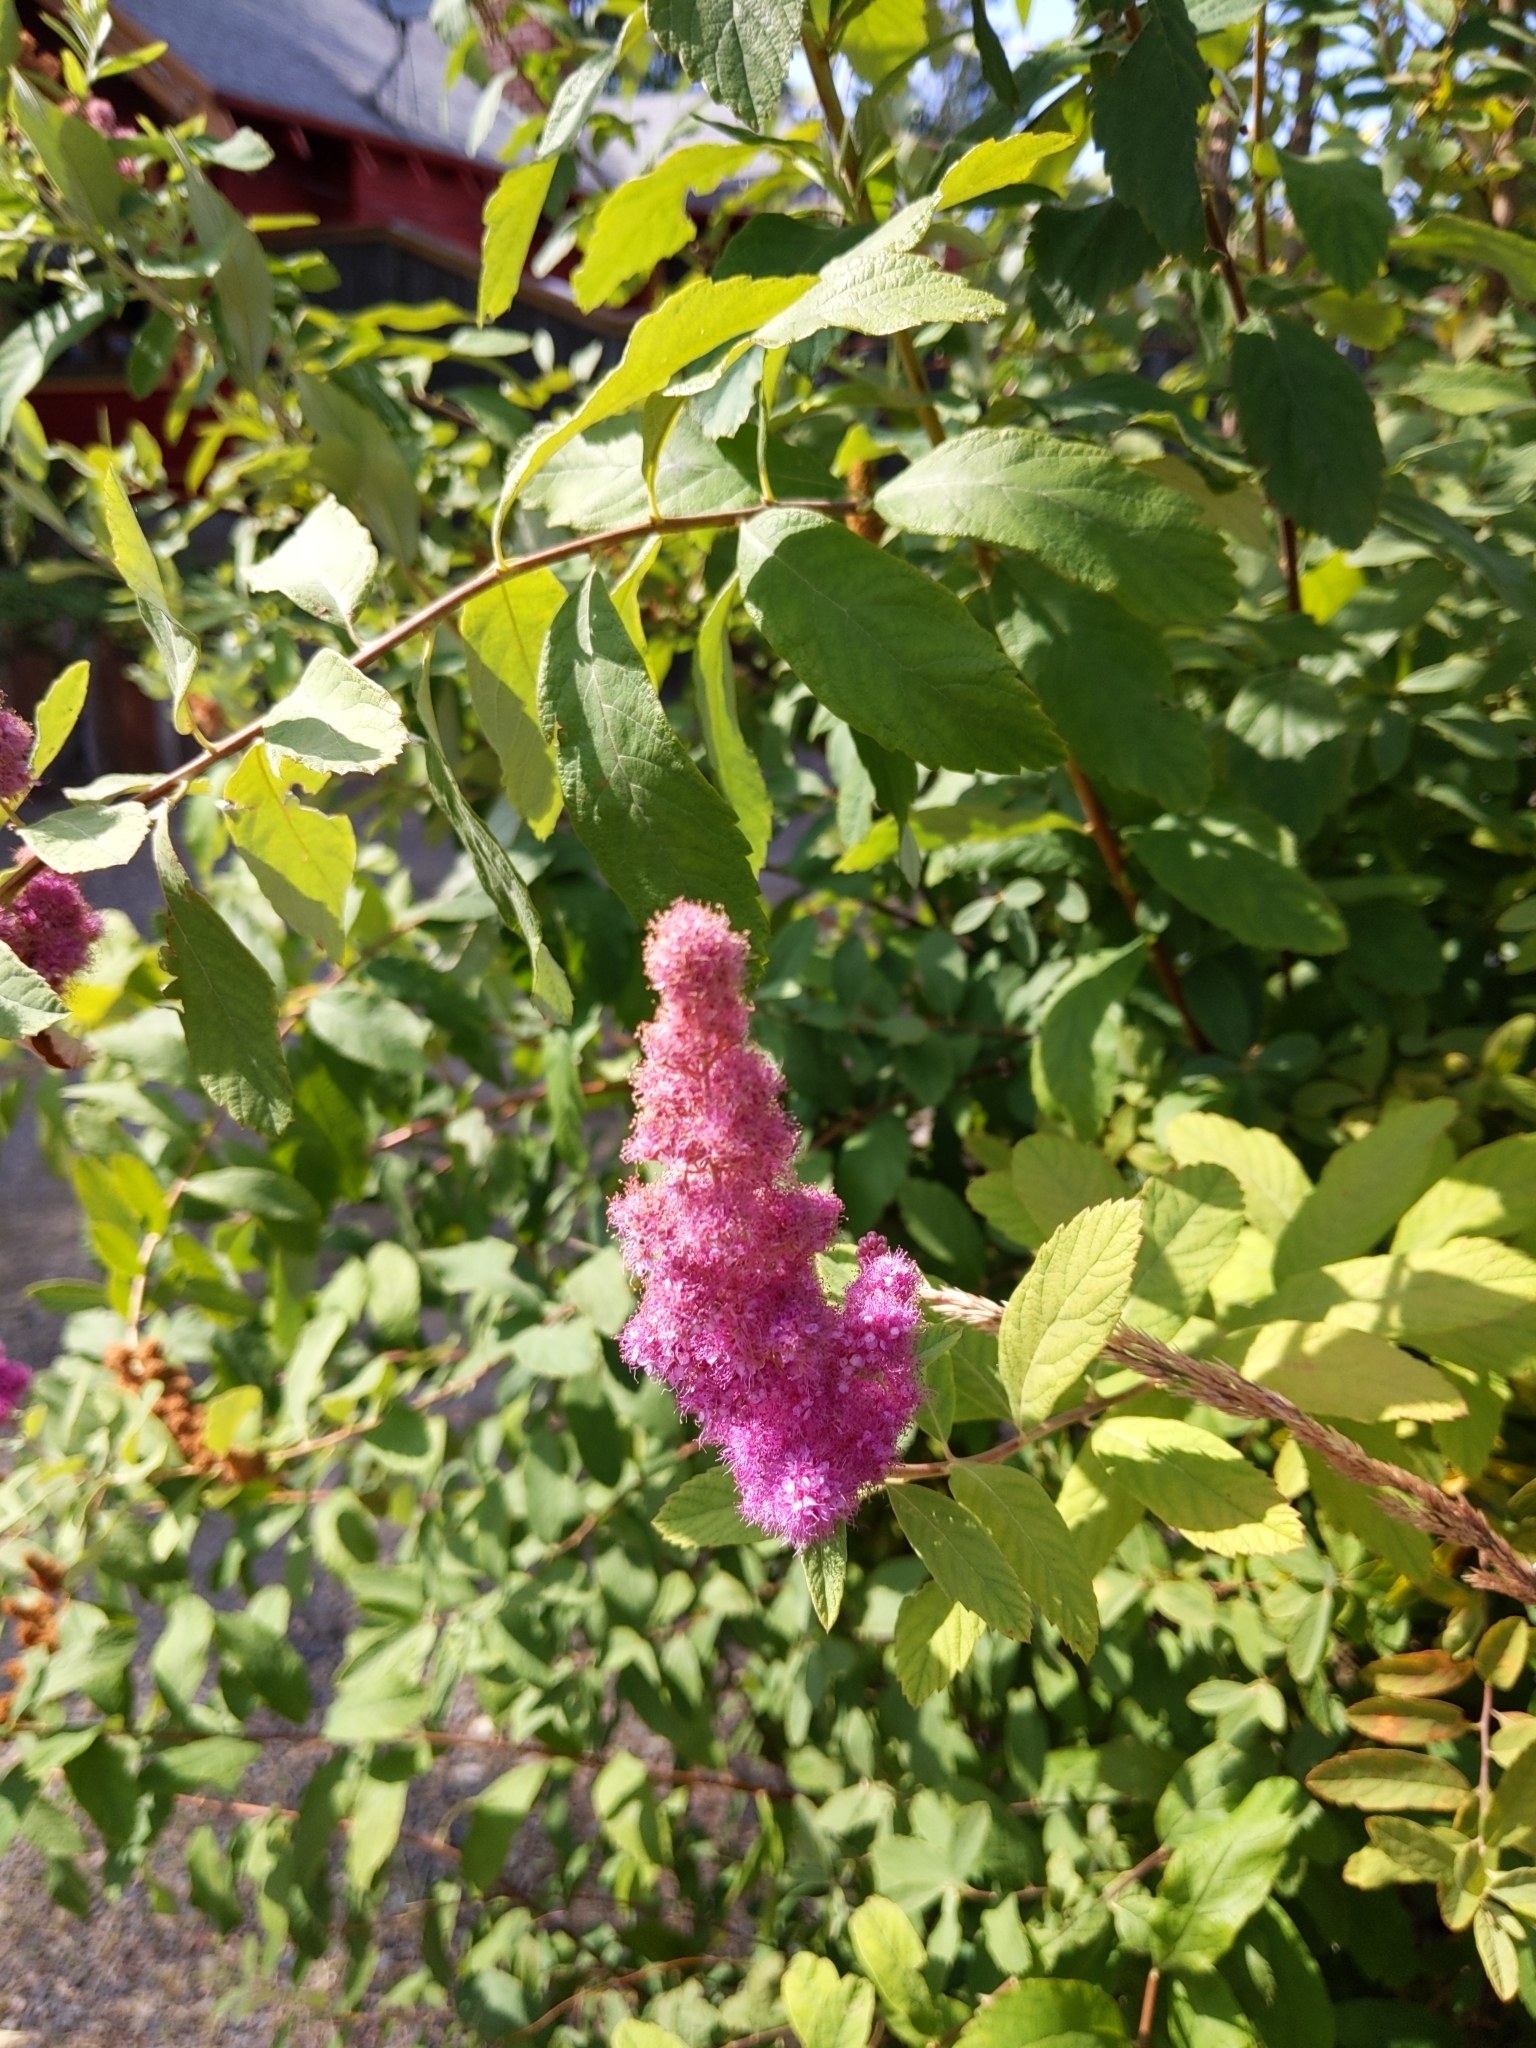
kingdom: Plantae
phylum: Tracheophyta
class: Magnoliopsida
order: Rosales
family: Rosaceae
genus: Spiraea
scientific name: Spiraea douglasii
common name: Steeplebush
